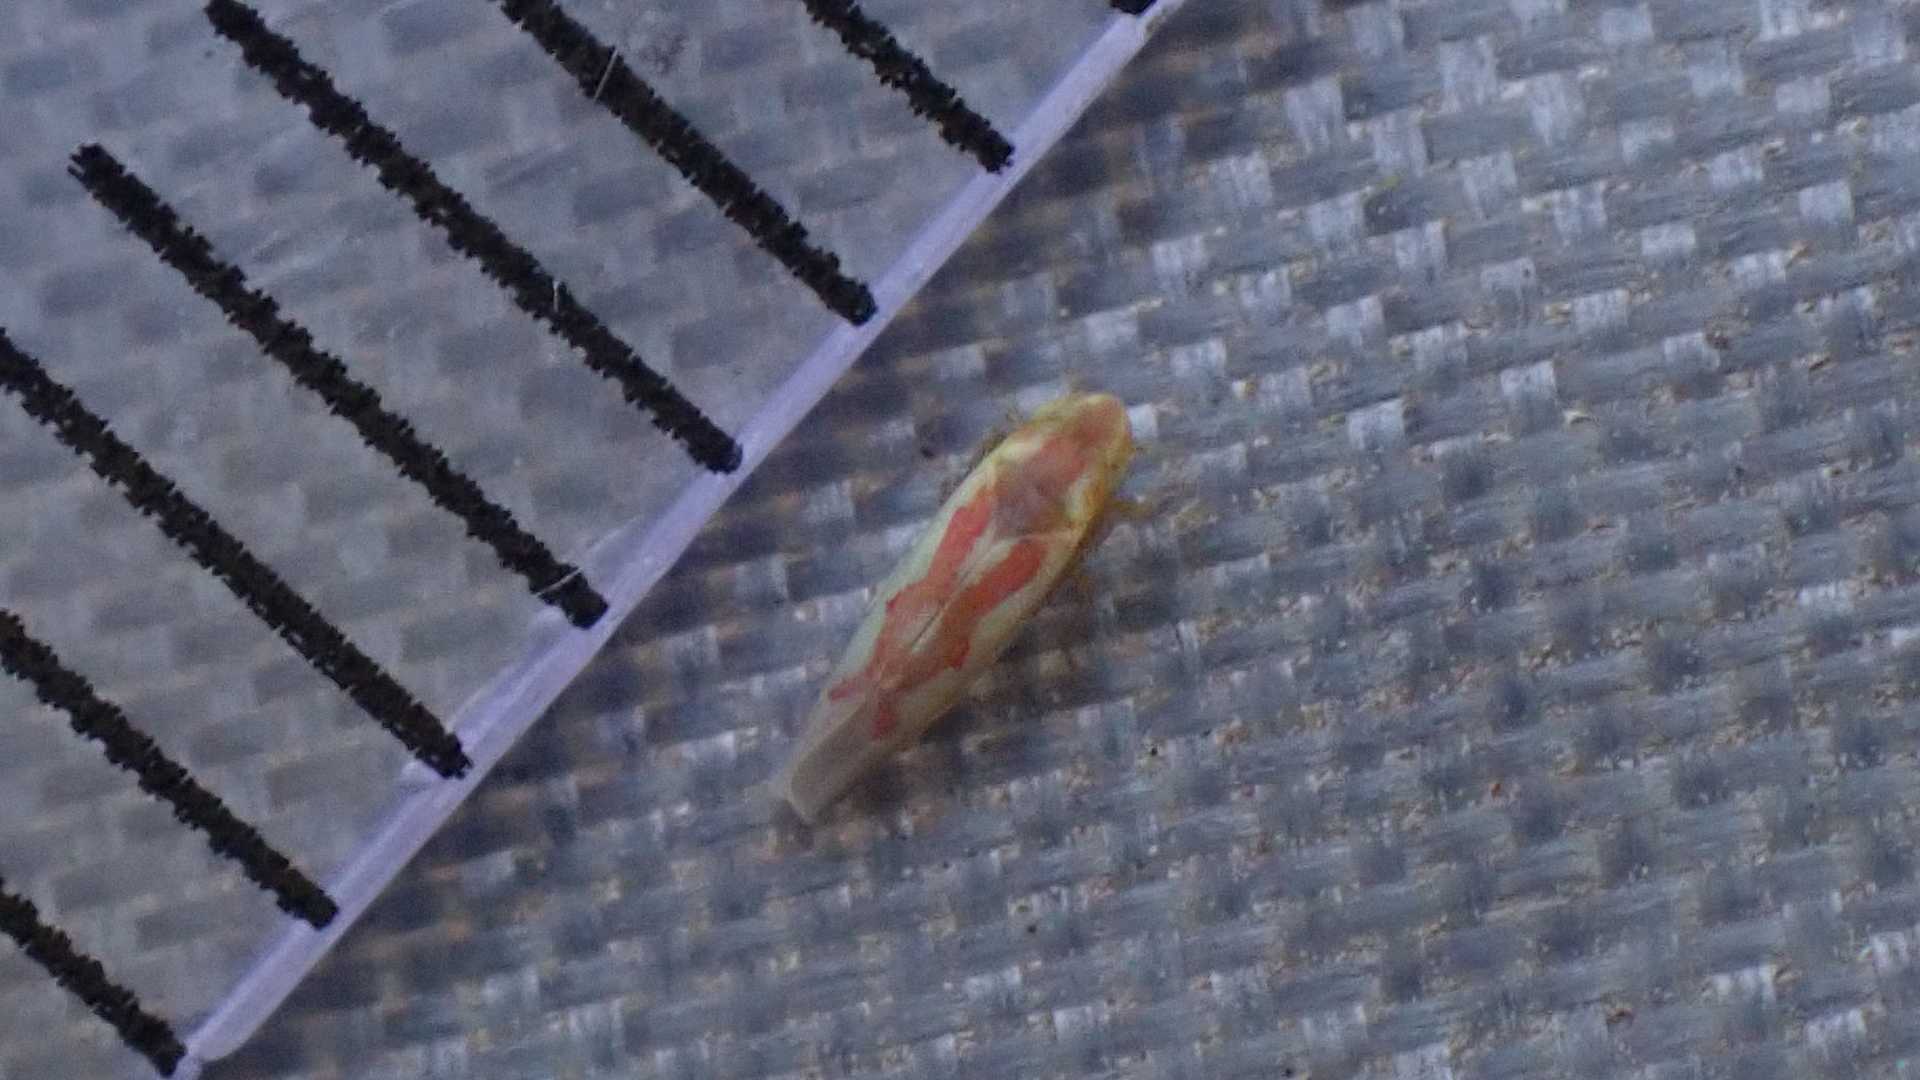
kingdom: Animalia
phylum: Arthropoda
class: Insecta
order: Hemiptera
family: Cicadellidae
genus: Zygina
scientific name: Zygina rubrovittata
